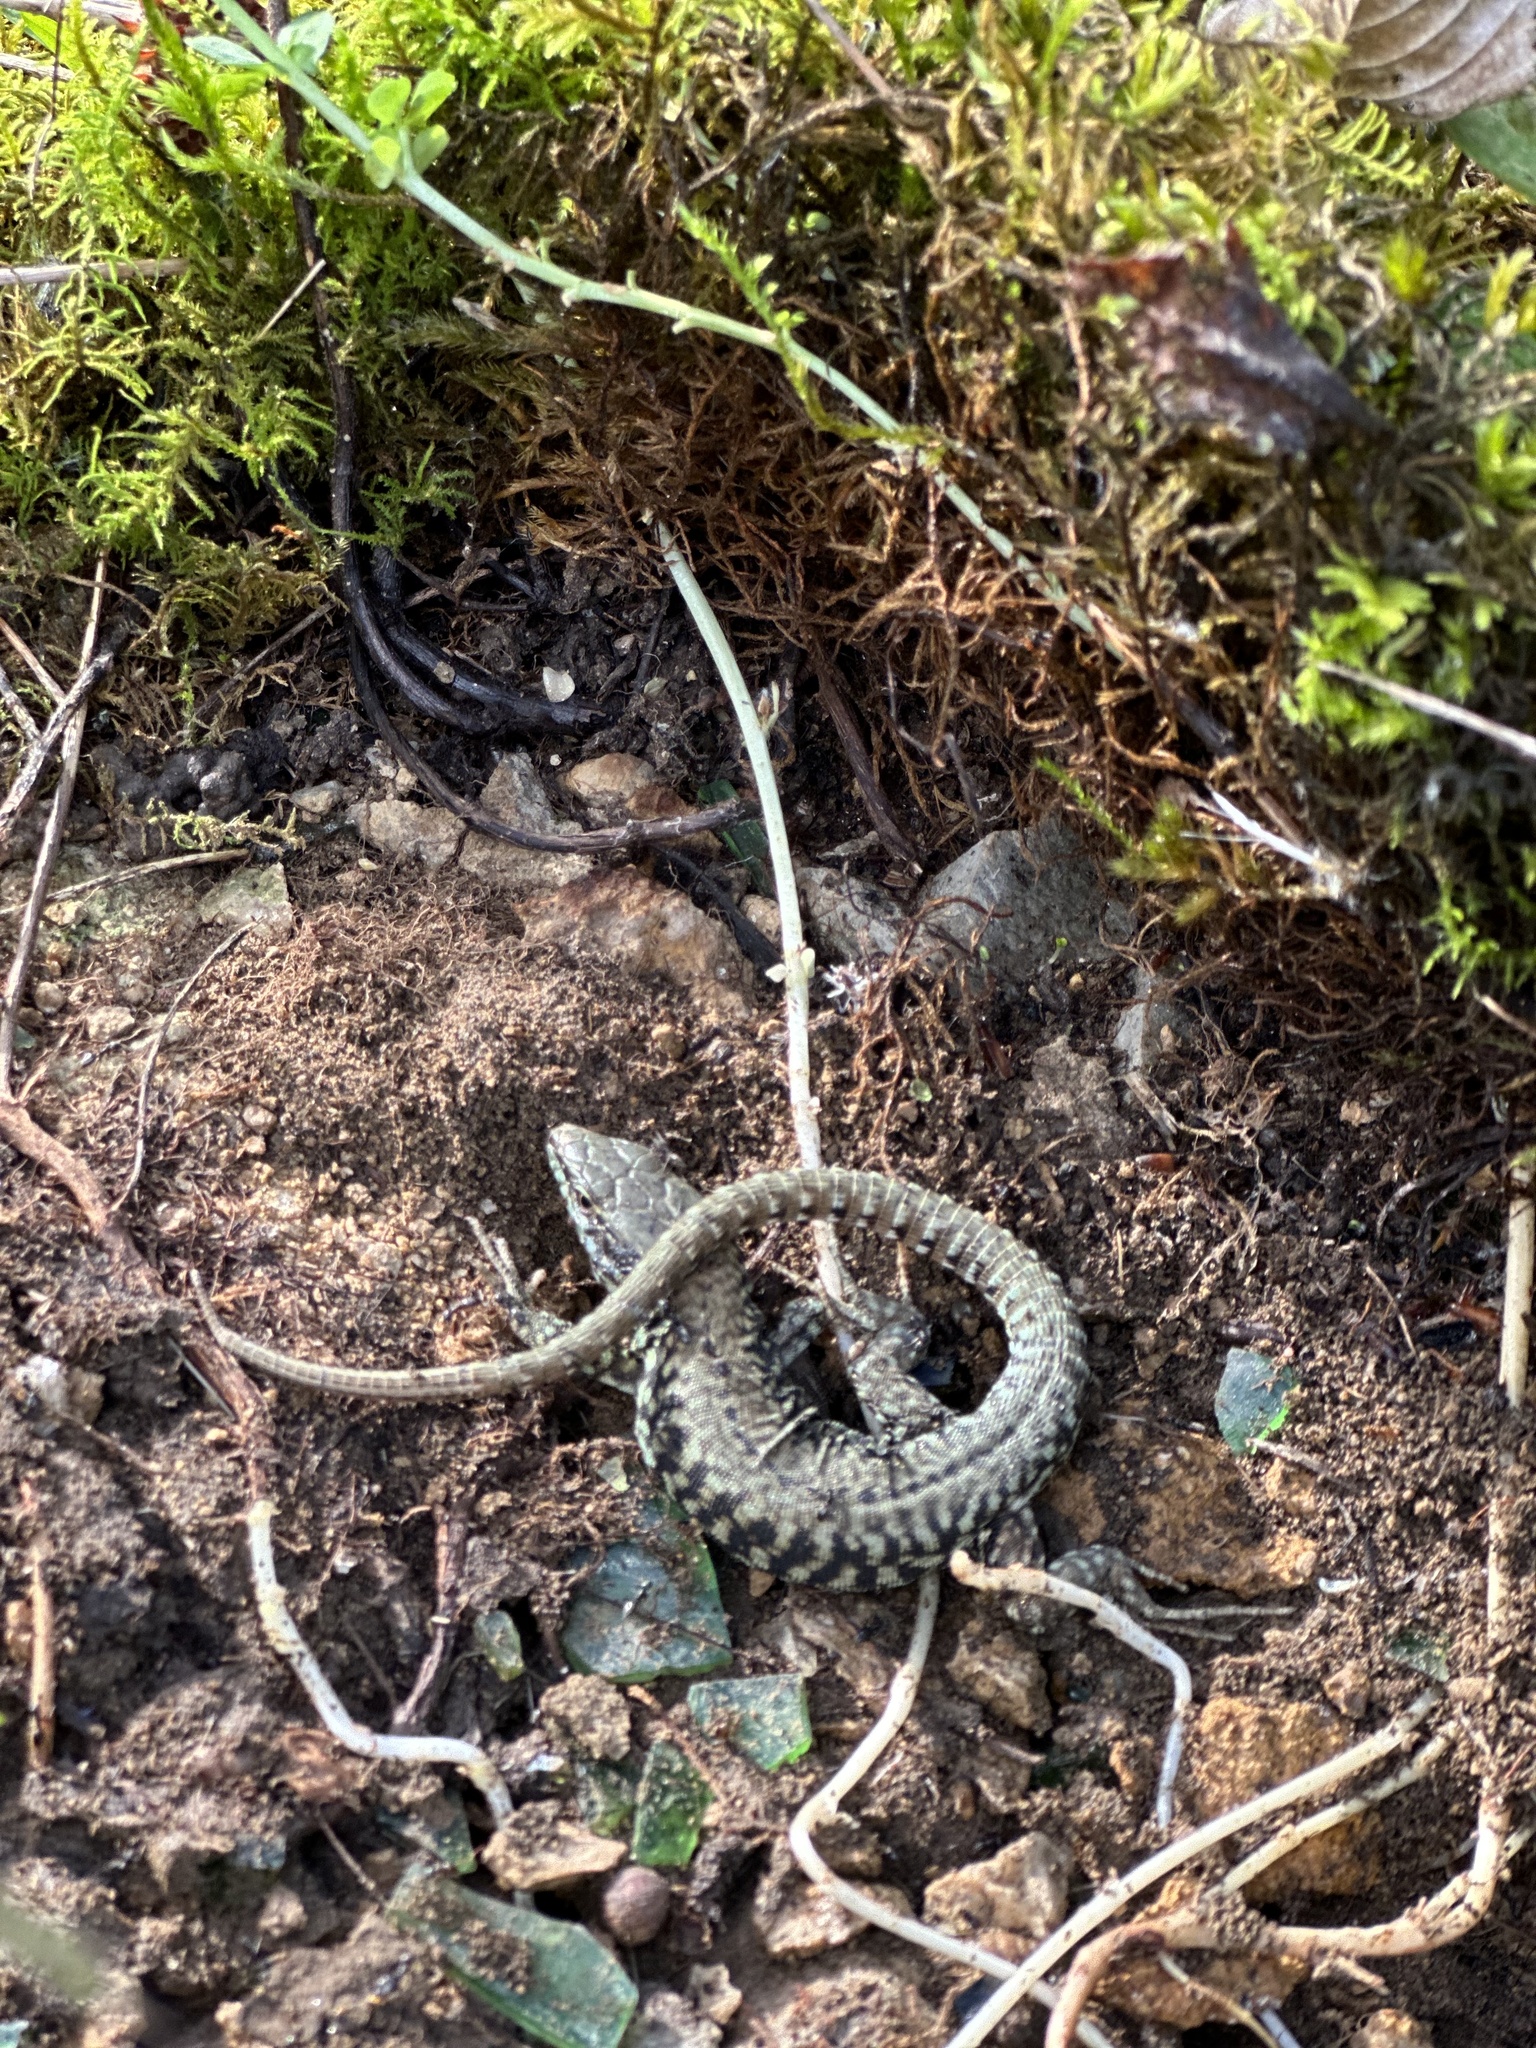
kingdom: Animalia
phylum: Chordata
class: Squamata
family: Lacertidae
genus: Podarcis
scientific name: Podarcis muralis
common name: Common wall lizard
